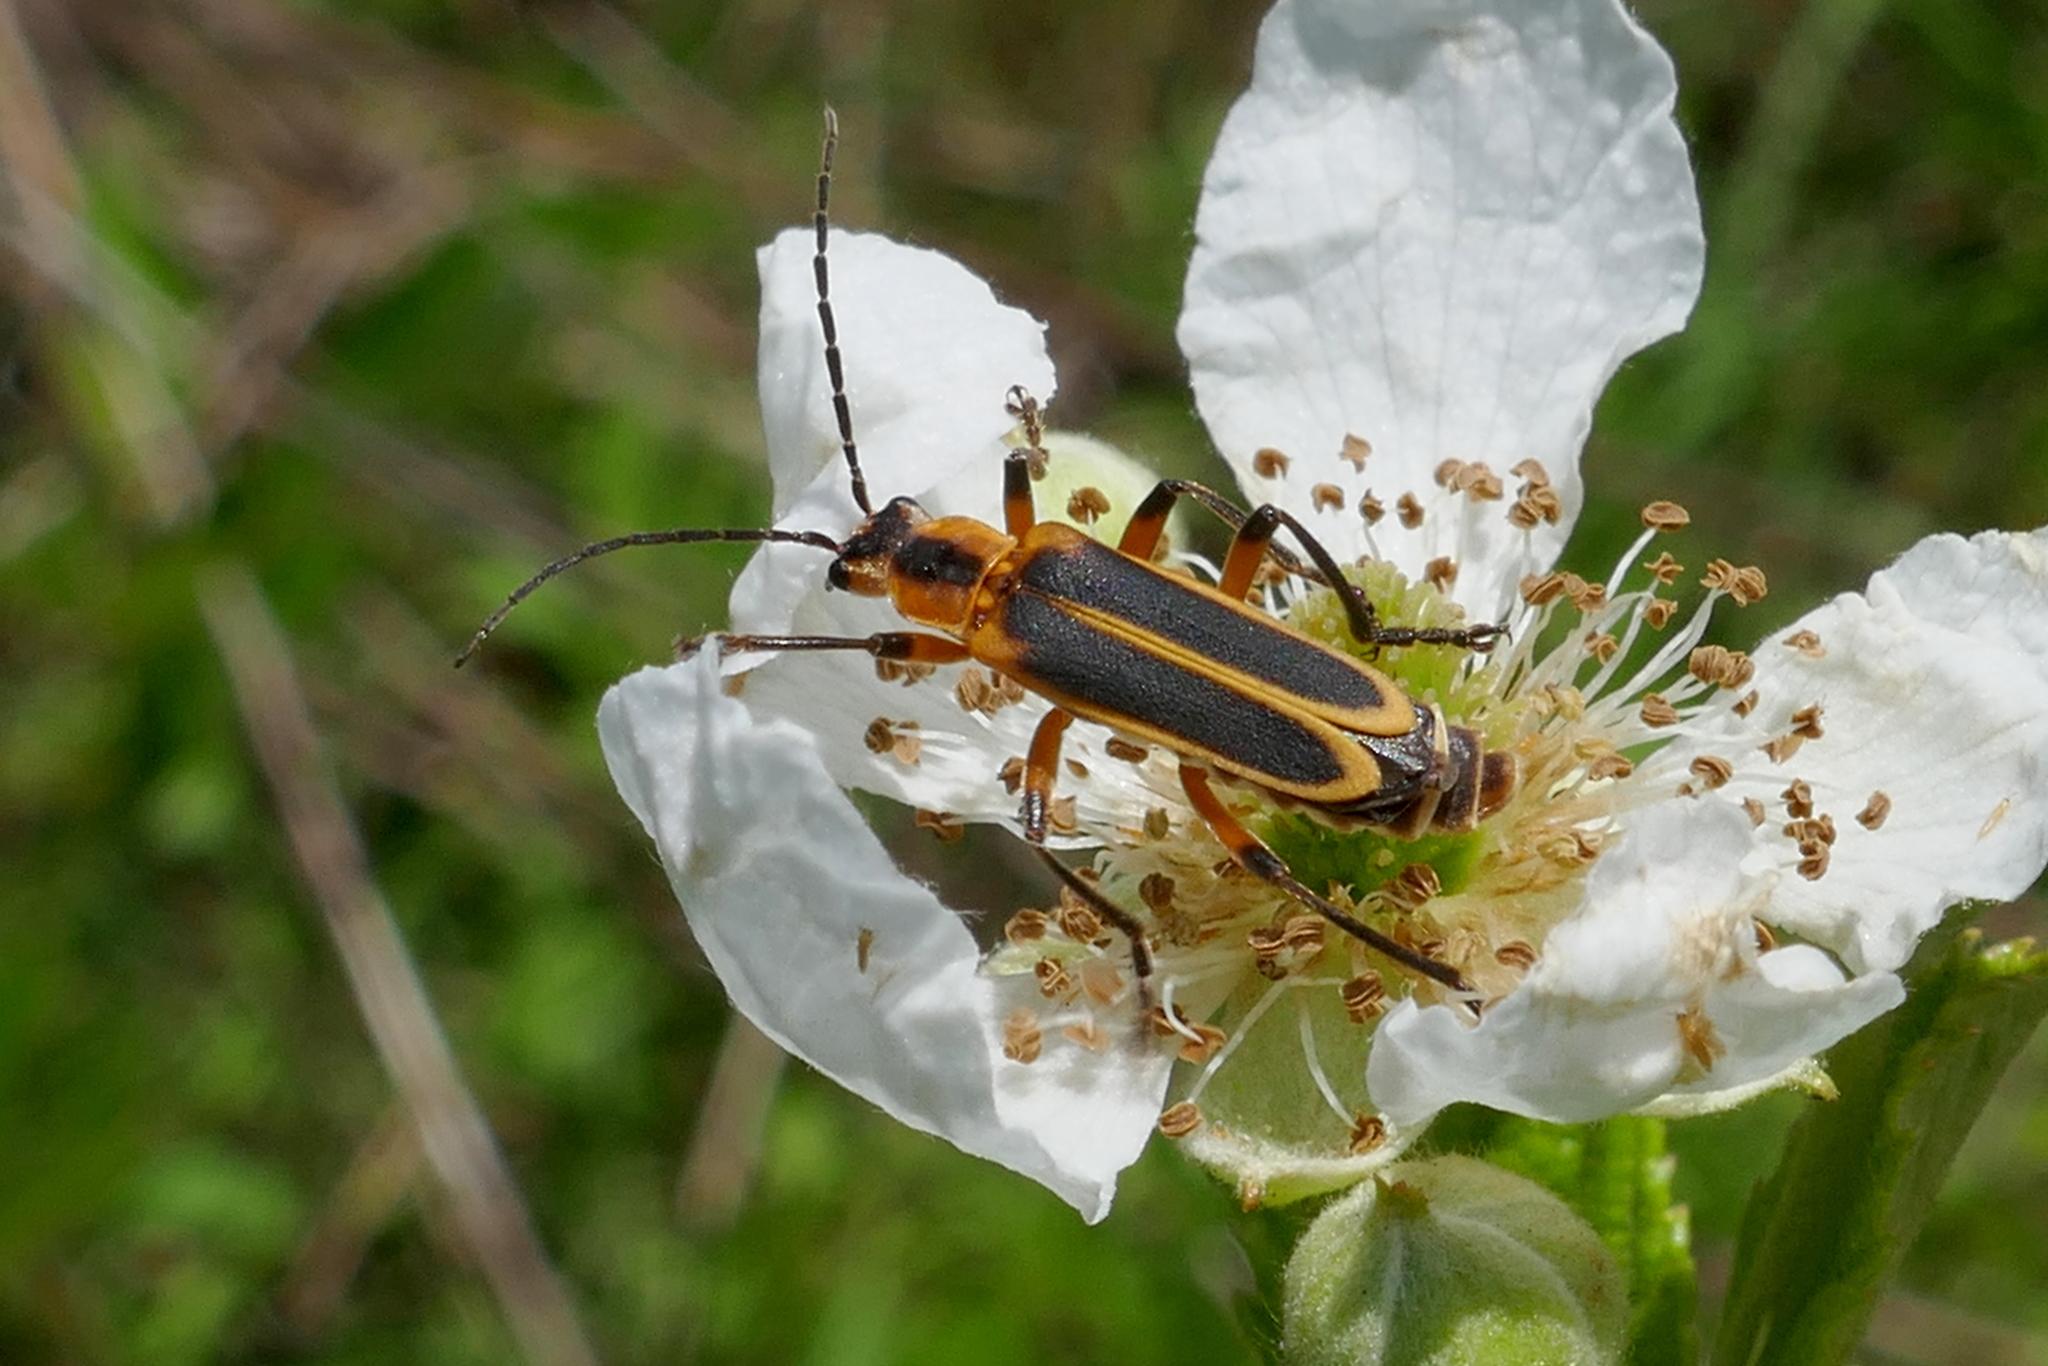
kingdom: Animalia
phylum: Arthropoda
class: Insecta
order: Coleoptera
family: Cantharidae
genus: Chauliognathus
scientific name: Chauliognathus marginatus
